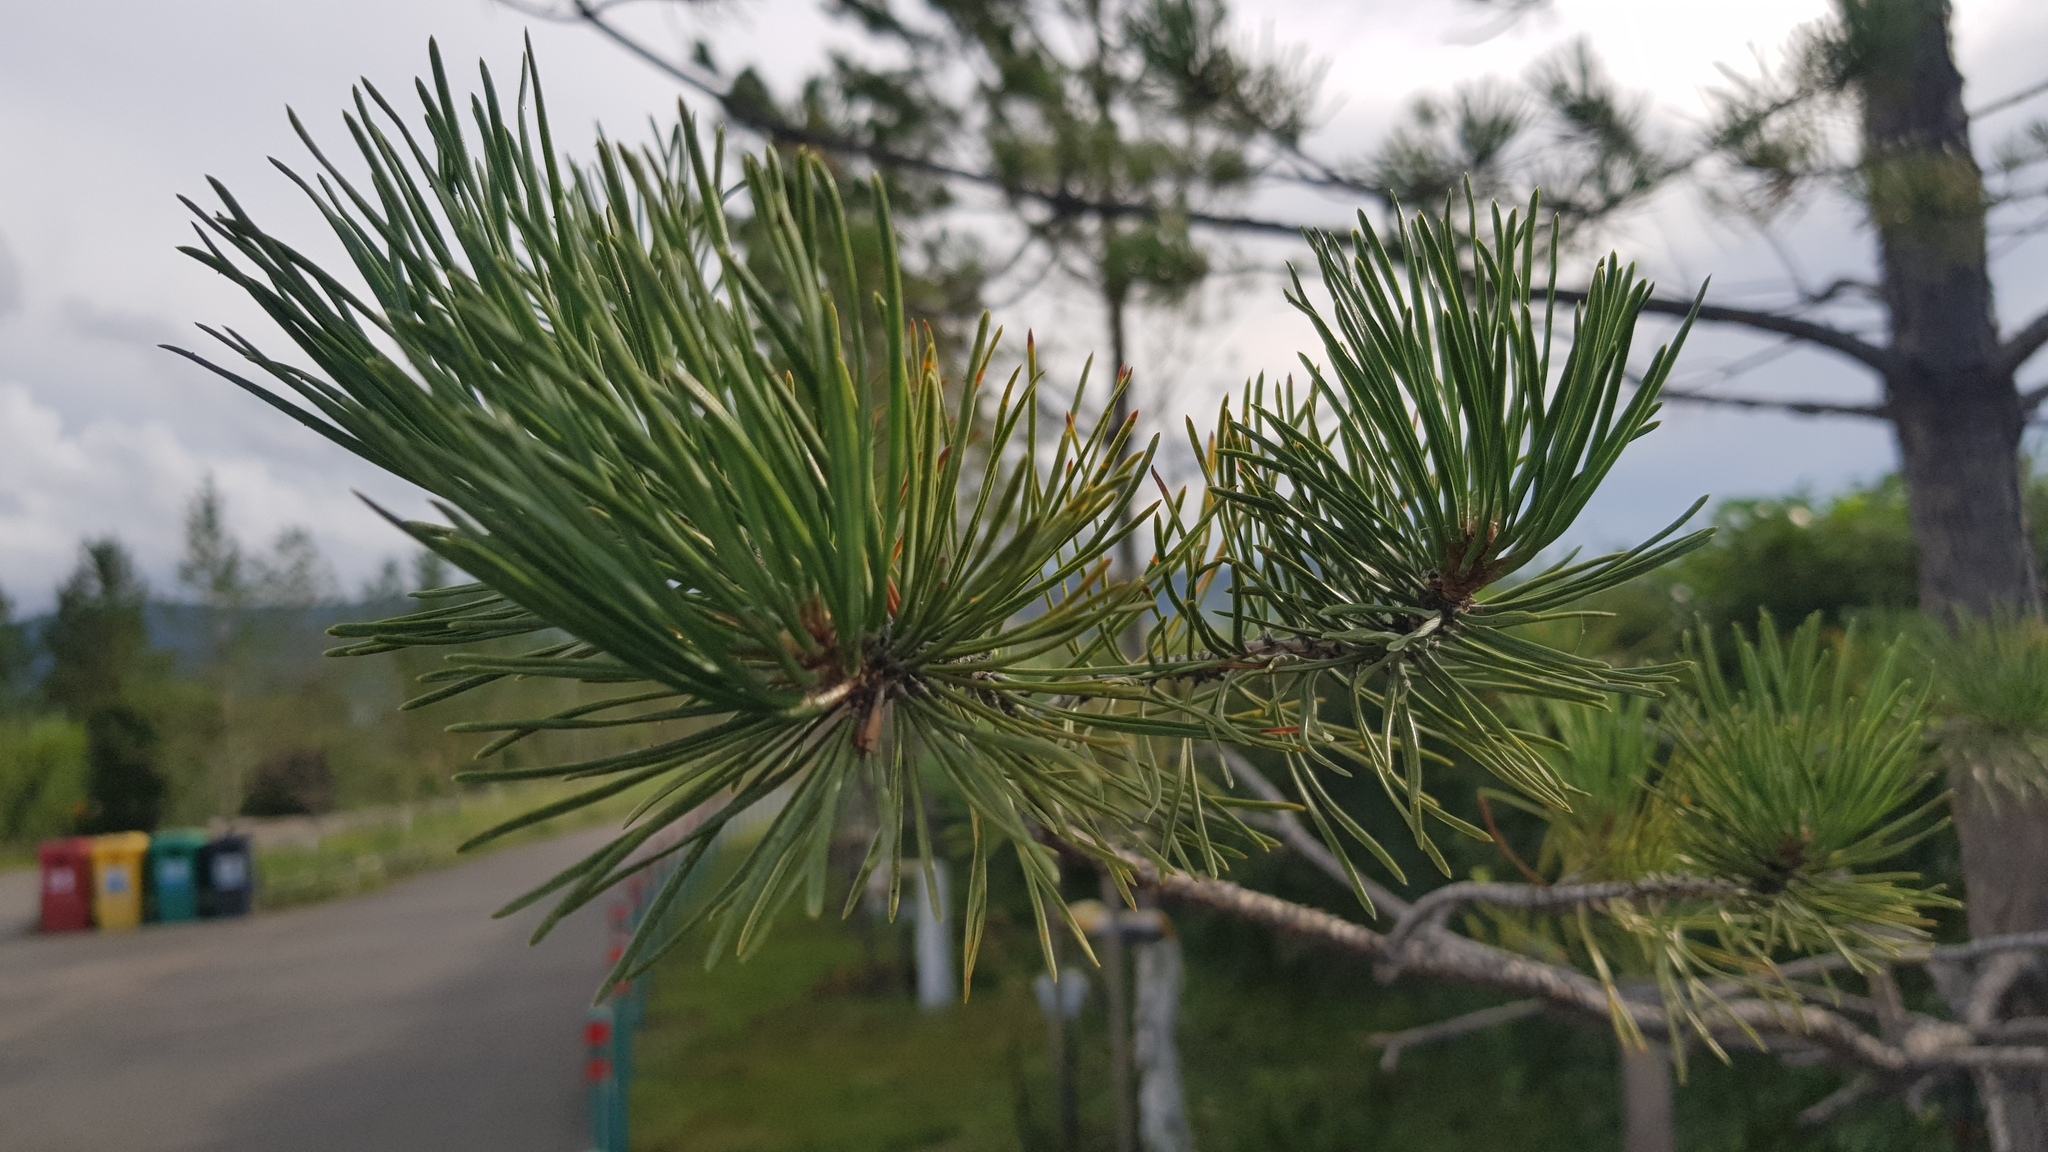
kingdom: Plantae
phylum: Tracheophyta
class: Pinopsida
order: Pinales
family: Pinaceae
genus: Pinus
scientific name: Pinus sylvestris
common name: Scots pine
